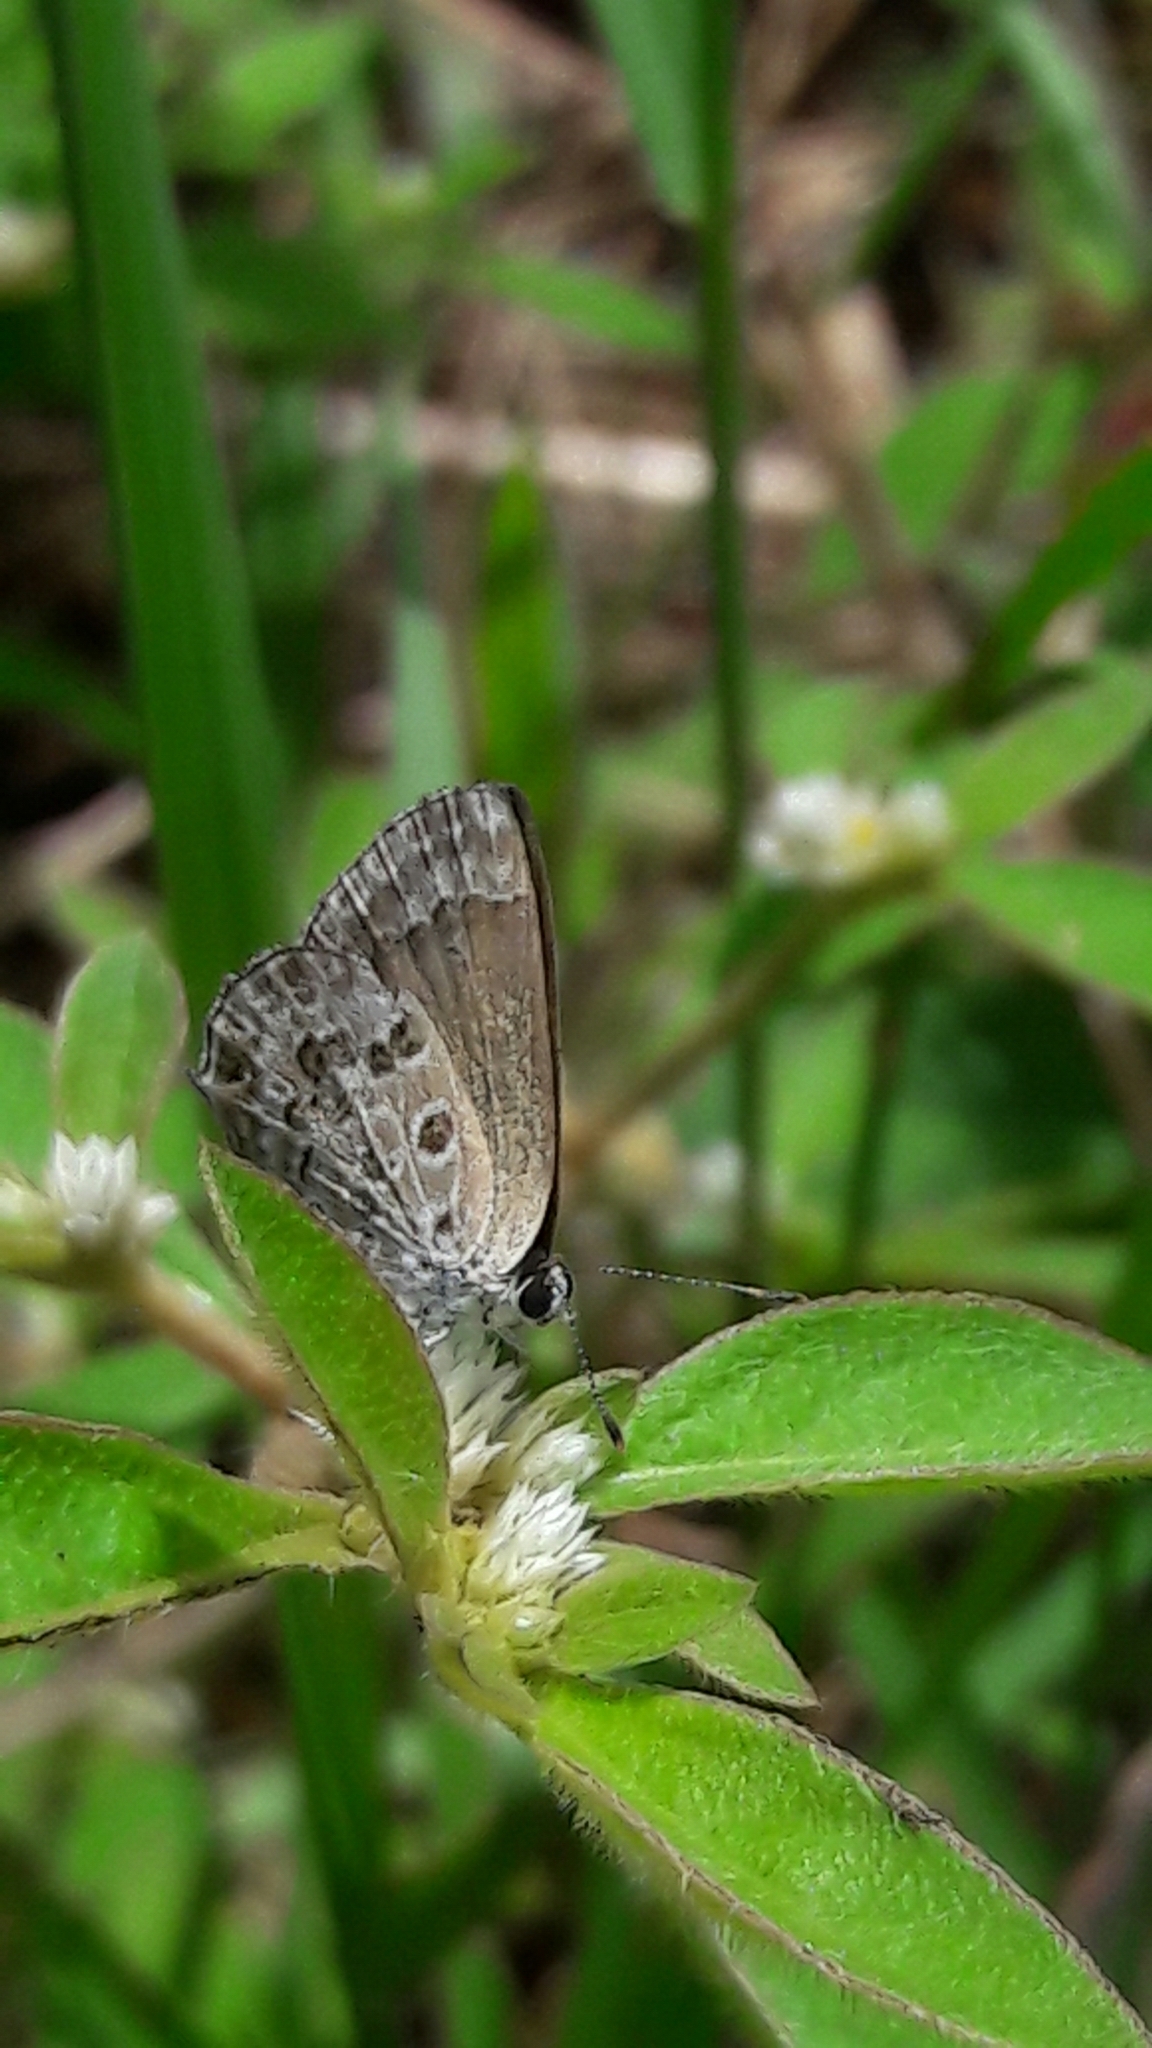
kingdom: Animalia
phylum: Arthropoda
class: Insecta
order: Lepidoptera
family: Lycaenidae
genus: Strymon
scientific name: Strymon astiocha
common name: Gray-spotted scrub-hairstreak
